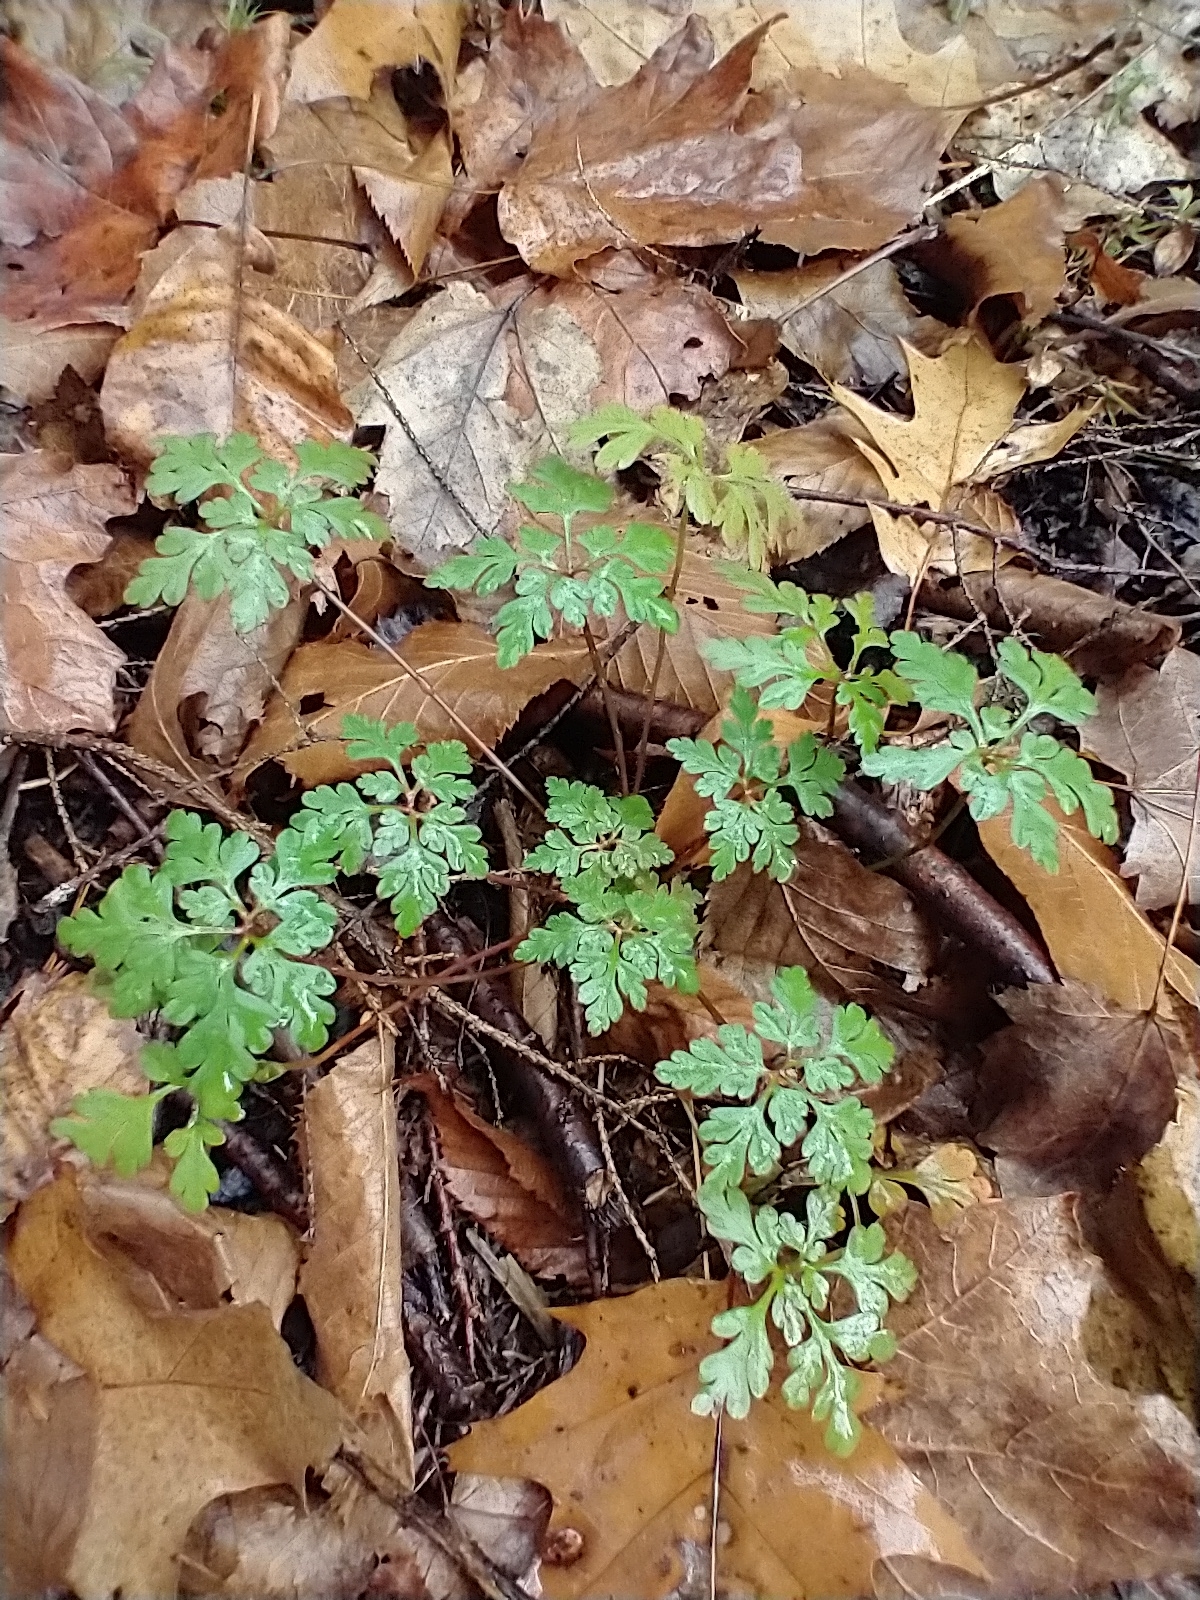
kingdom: Plantae
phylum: Tracheophyta
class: Magnoliopsida
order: Geraniales
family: Geraniaceae
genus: Geranium
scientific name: Geranium robertianum
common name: Herb-robert
